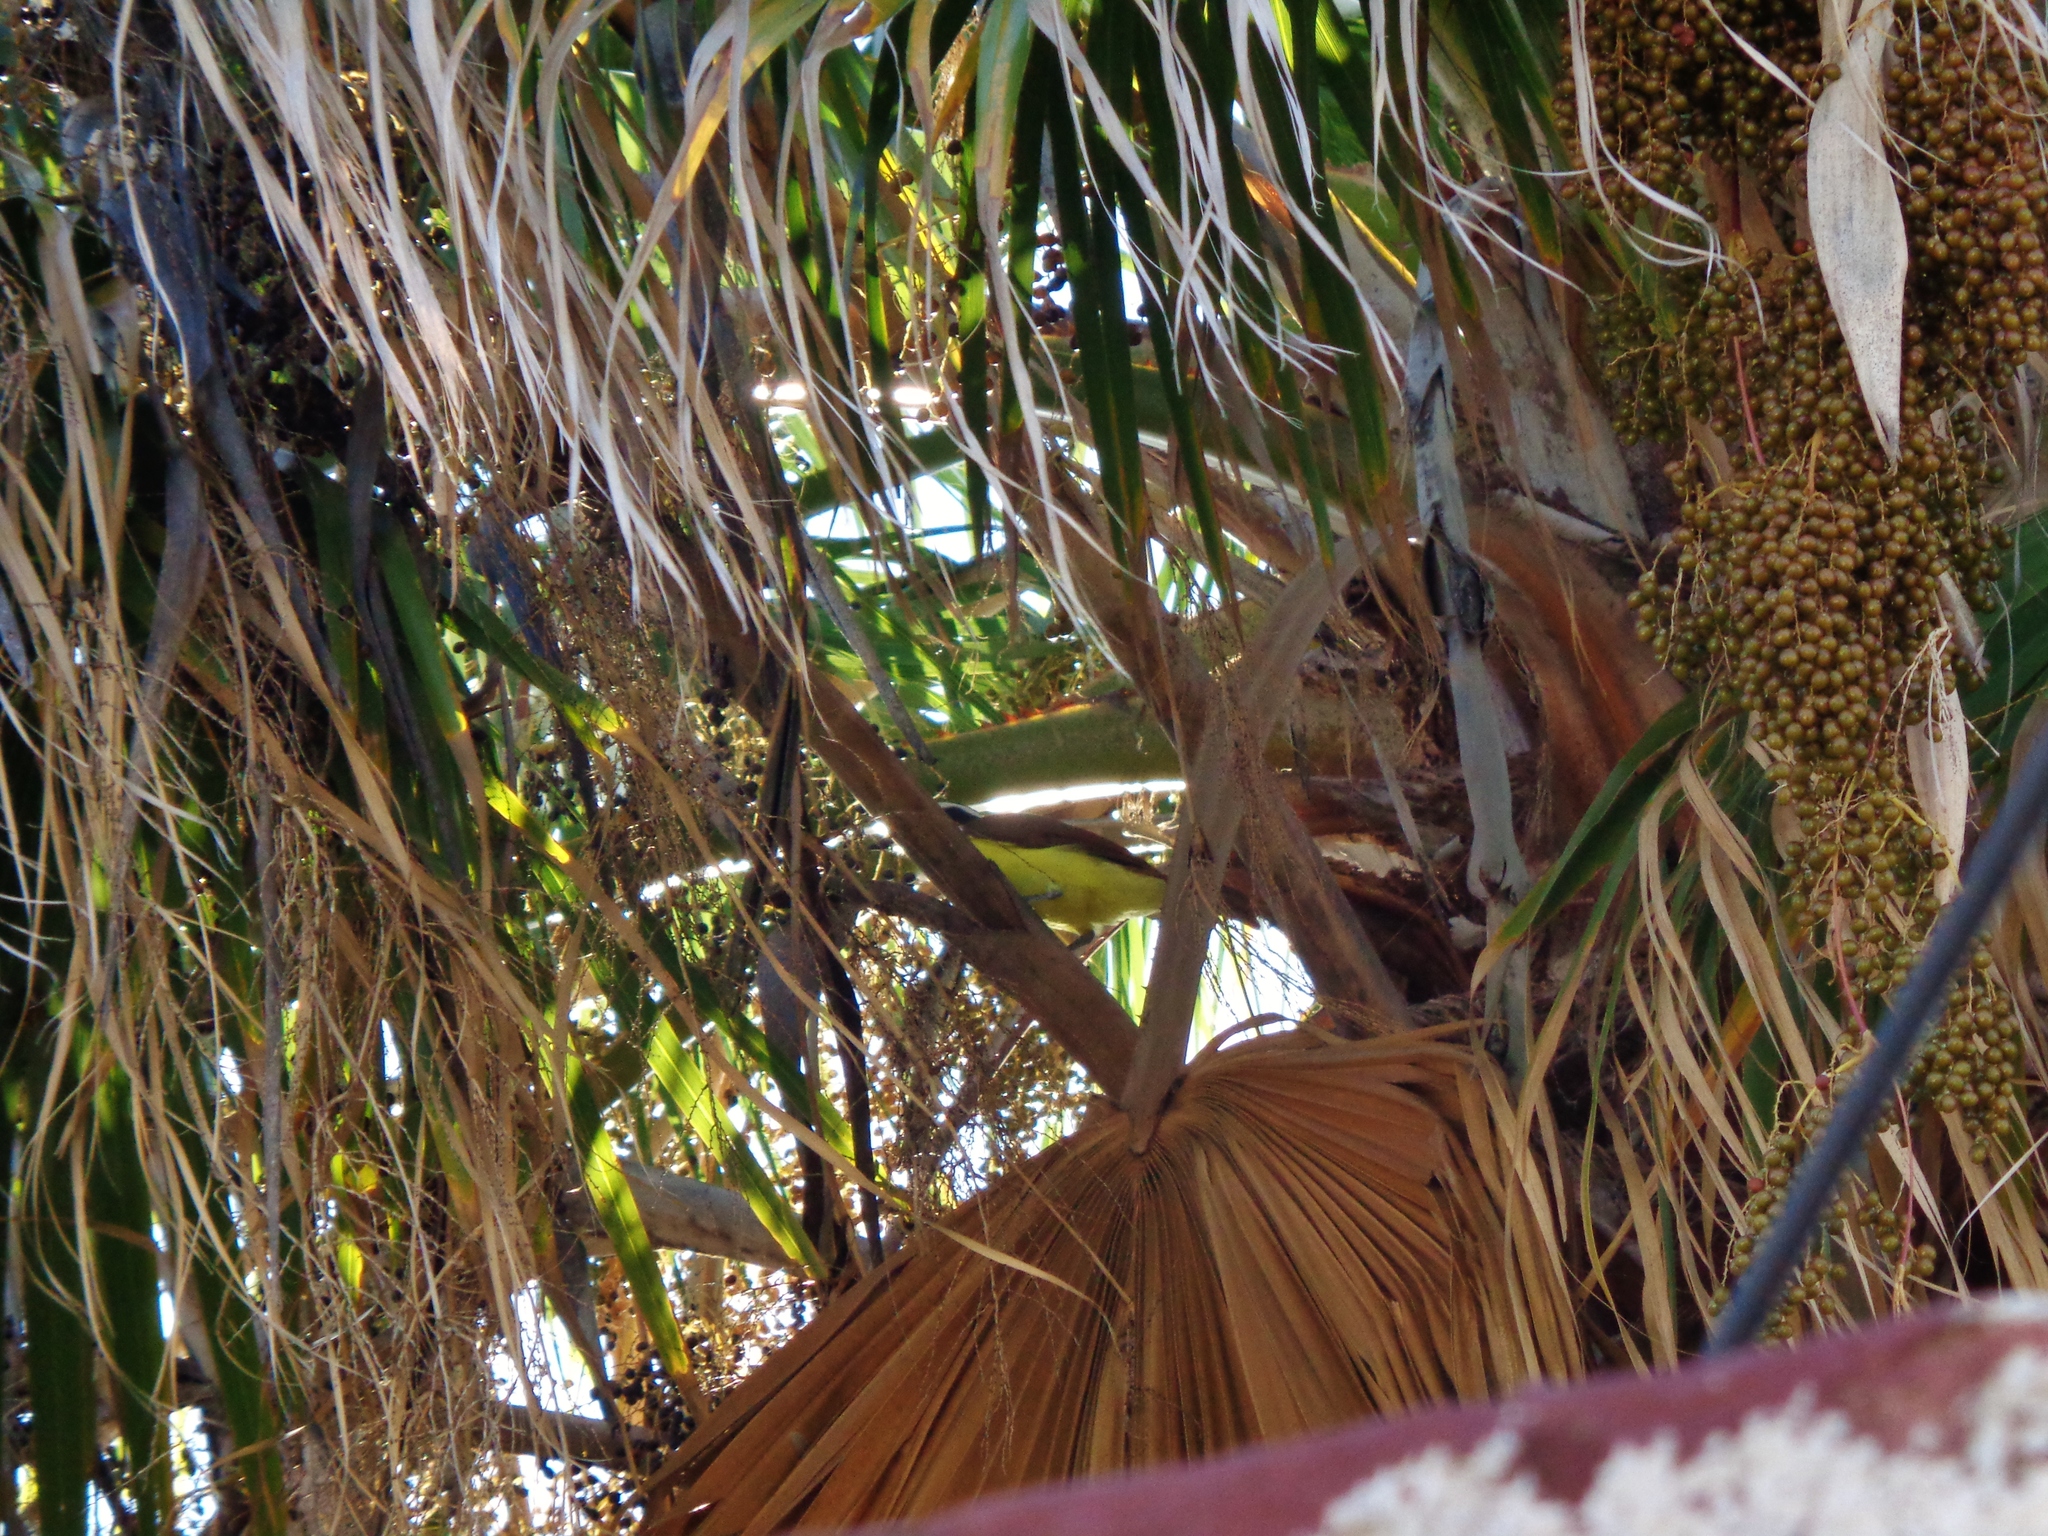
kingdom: Animalia
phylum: Chordata
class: Aves
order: Passeriformes
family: Tyrannidae
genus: Pitangus
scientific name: Pitangus sulphuratus
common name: Great kiskadee
